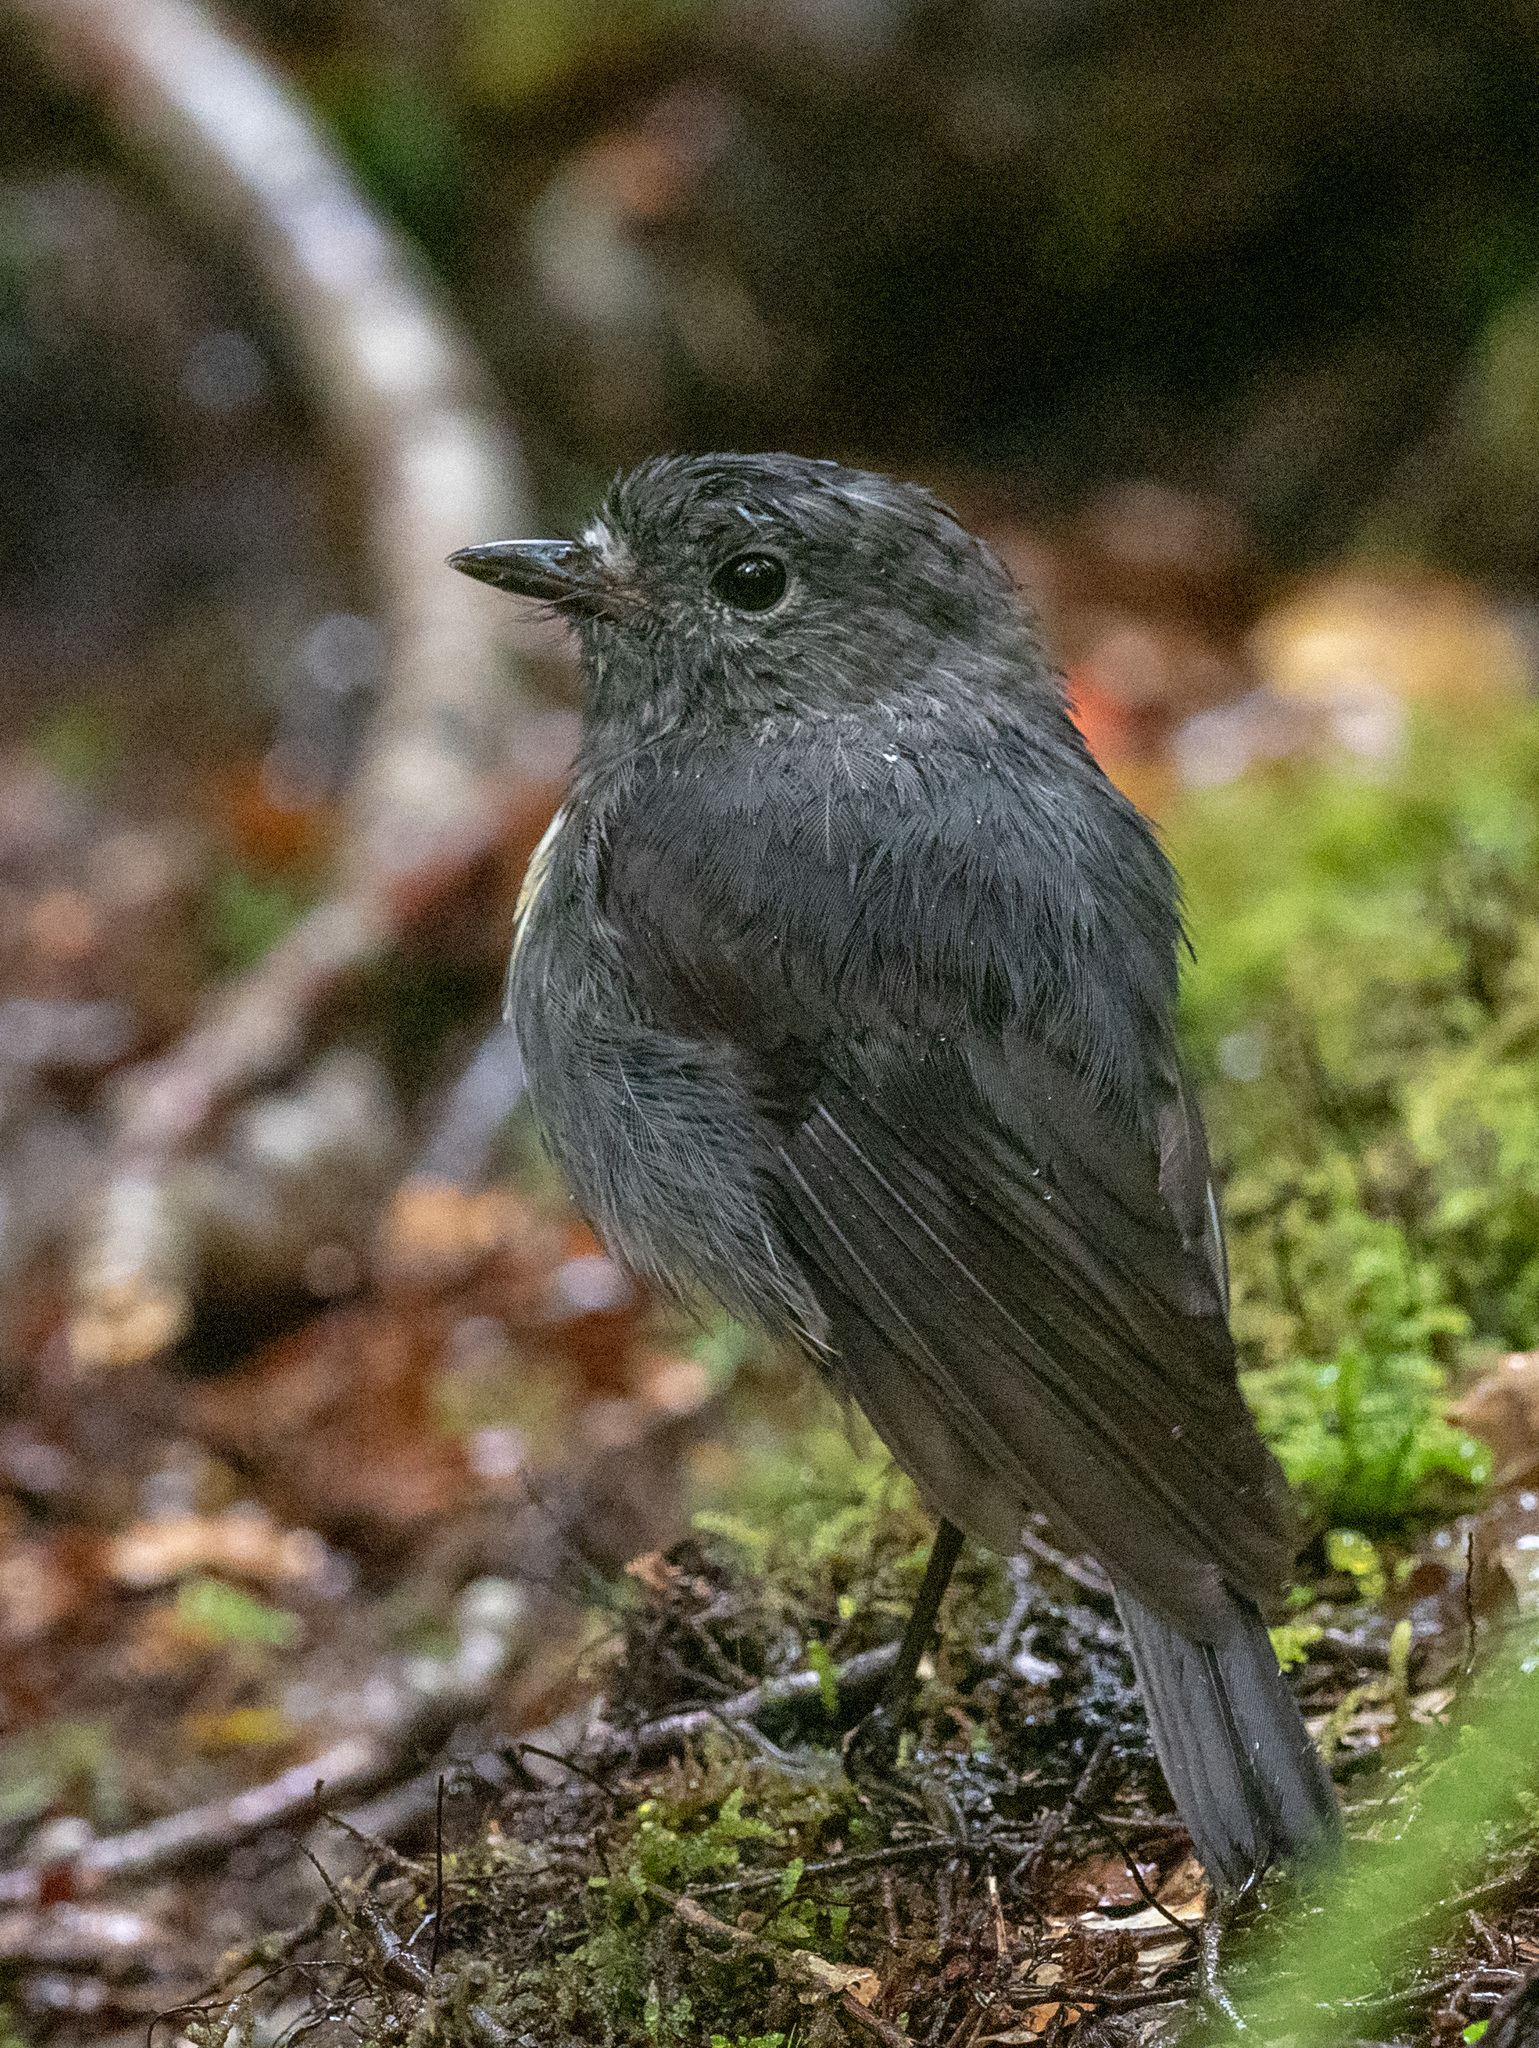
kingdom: Animalia
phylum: Chordata
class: Aves
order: Passeriformes
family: Petroicidae
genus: Petroica
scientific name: Petroica australis
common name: New zealand robin
